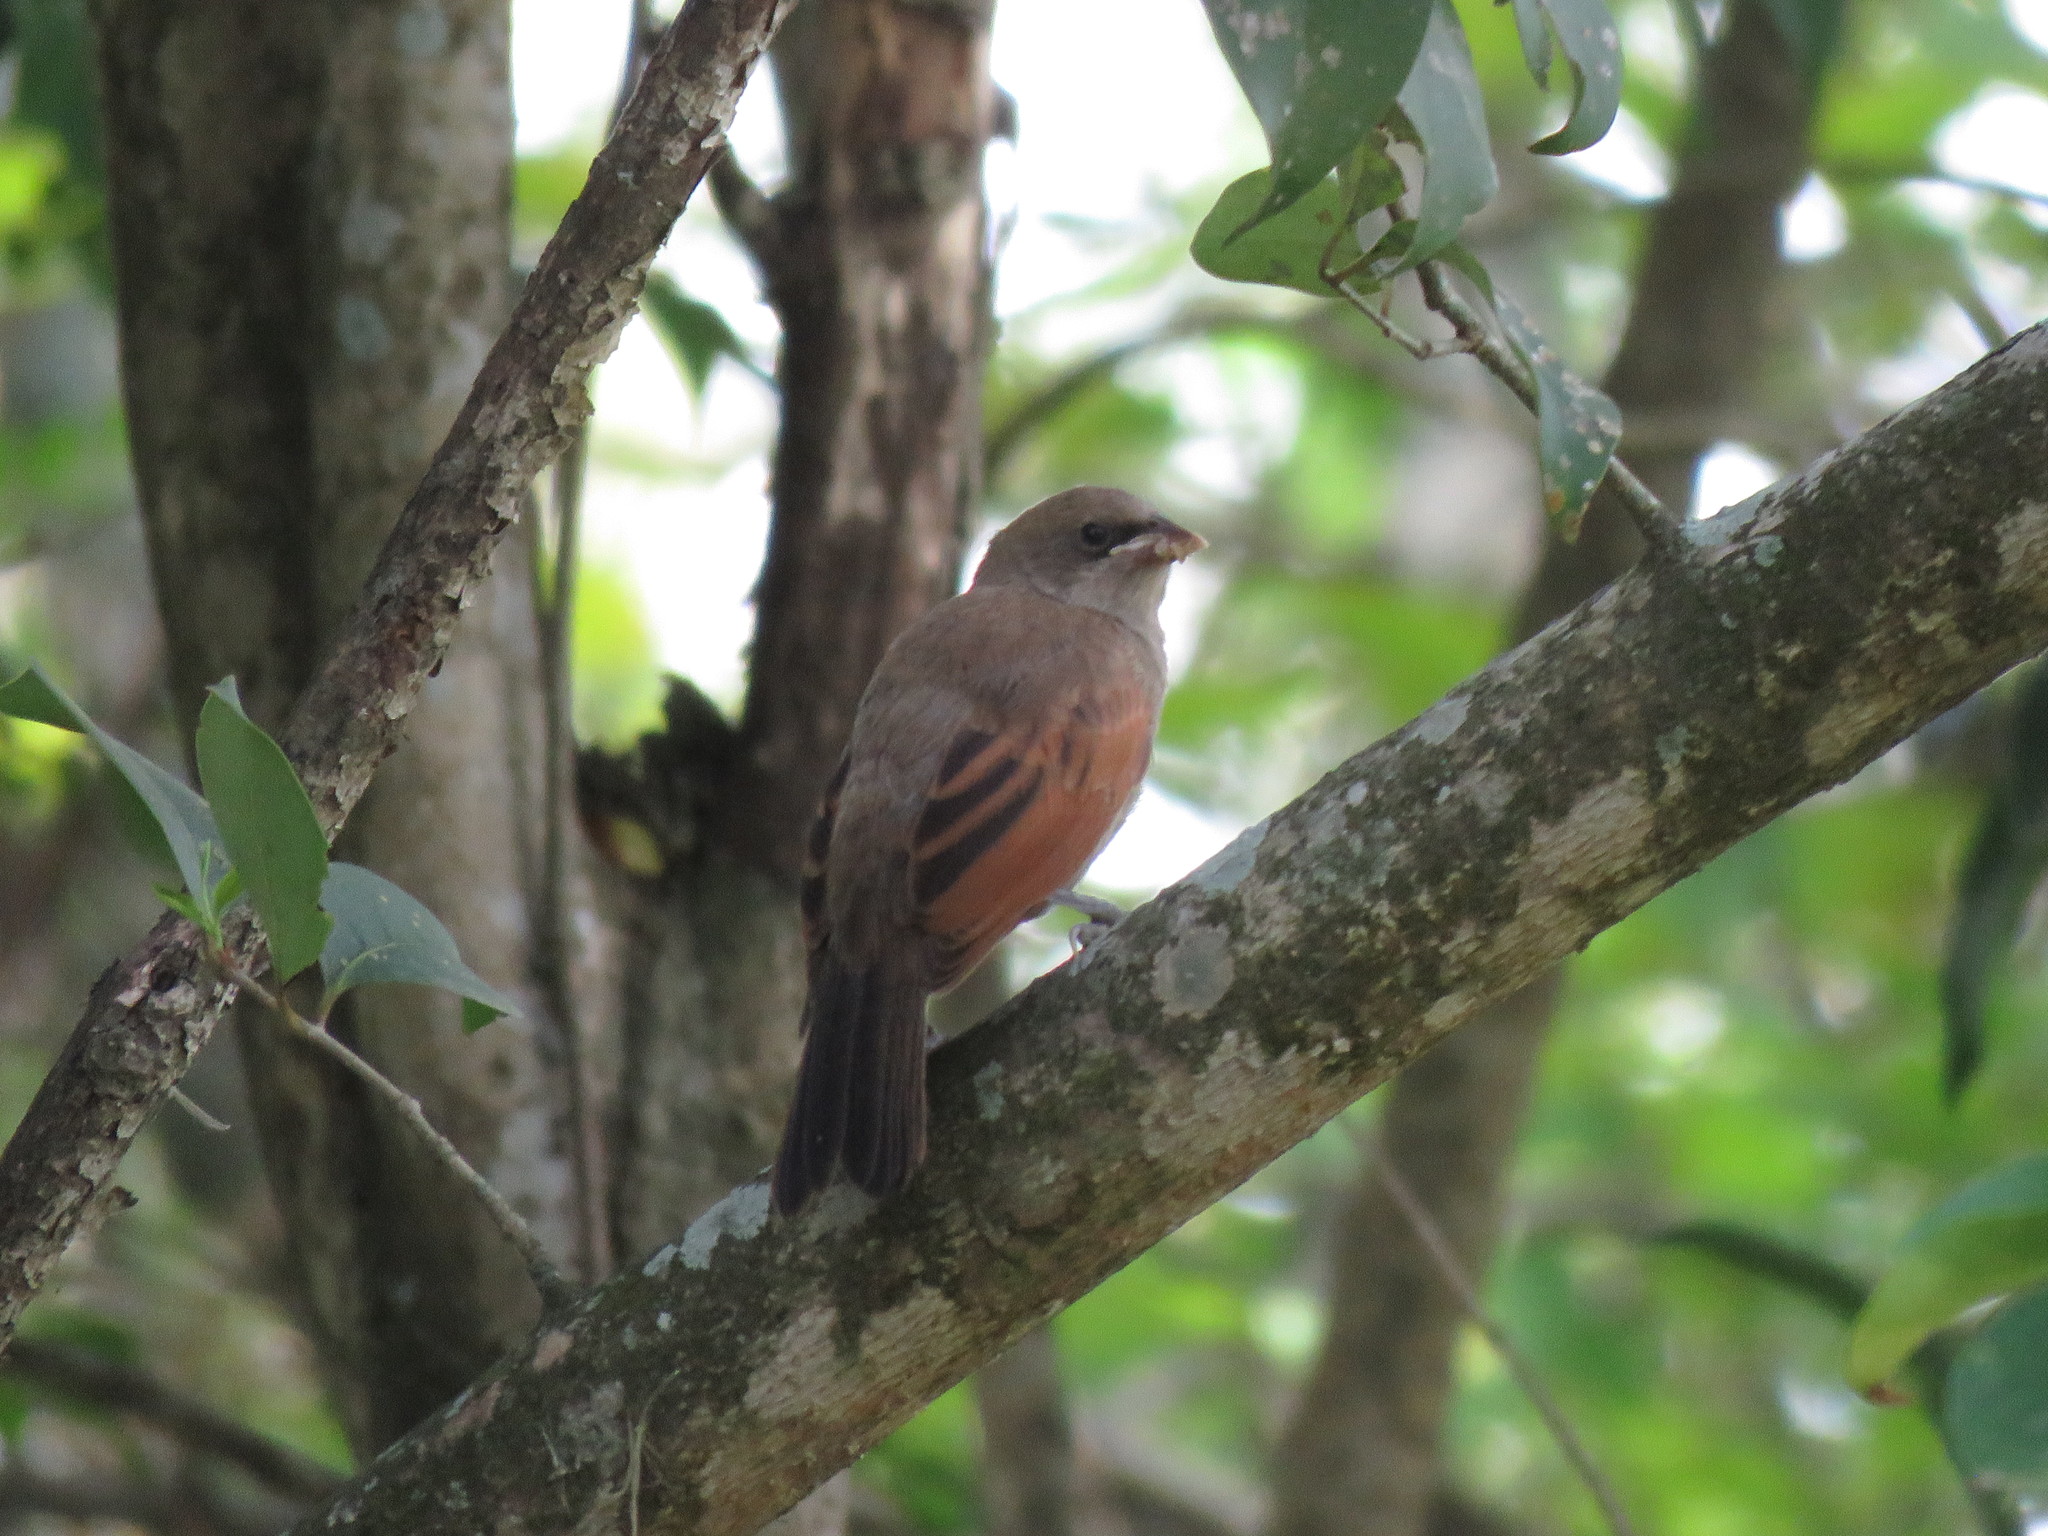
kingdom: Animalia
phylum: Chordata
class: Aves
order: Passeriformes
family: Icteridae
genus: Agelaioides
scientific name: Agelaioides badius
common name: Baywing
